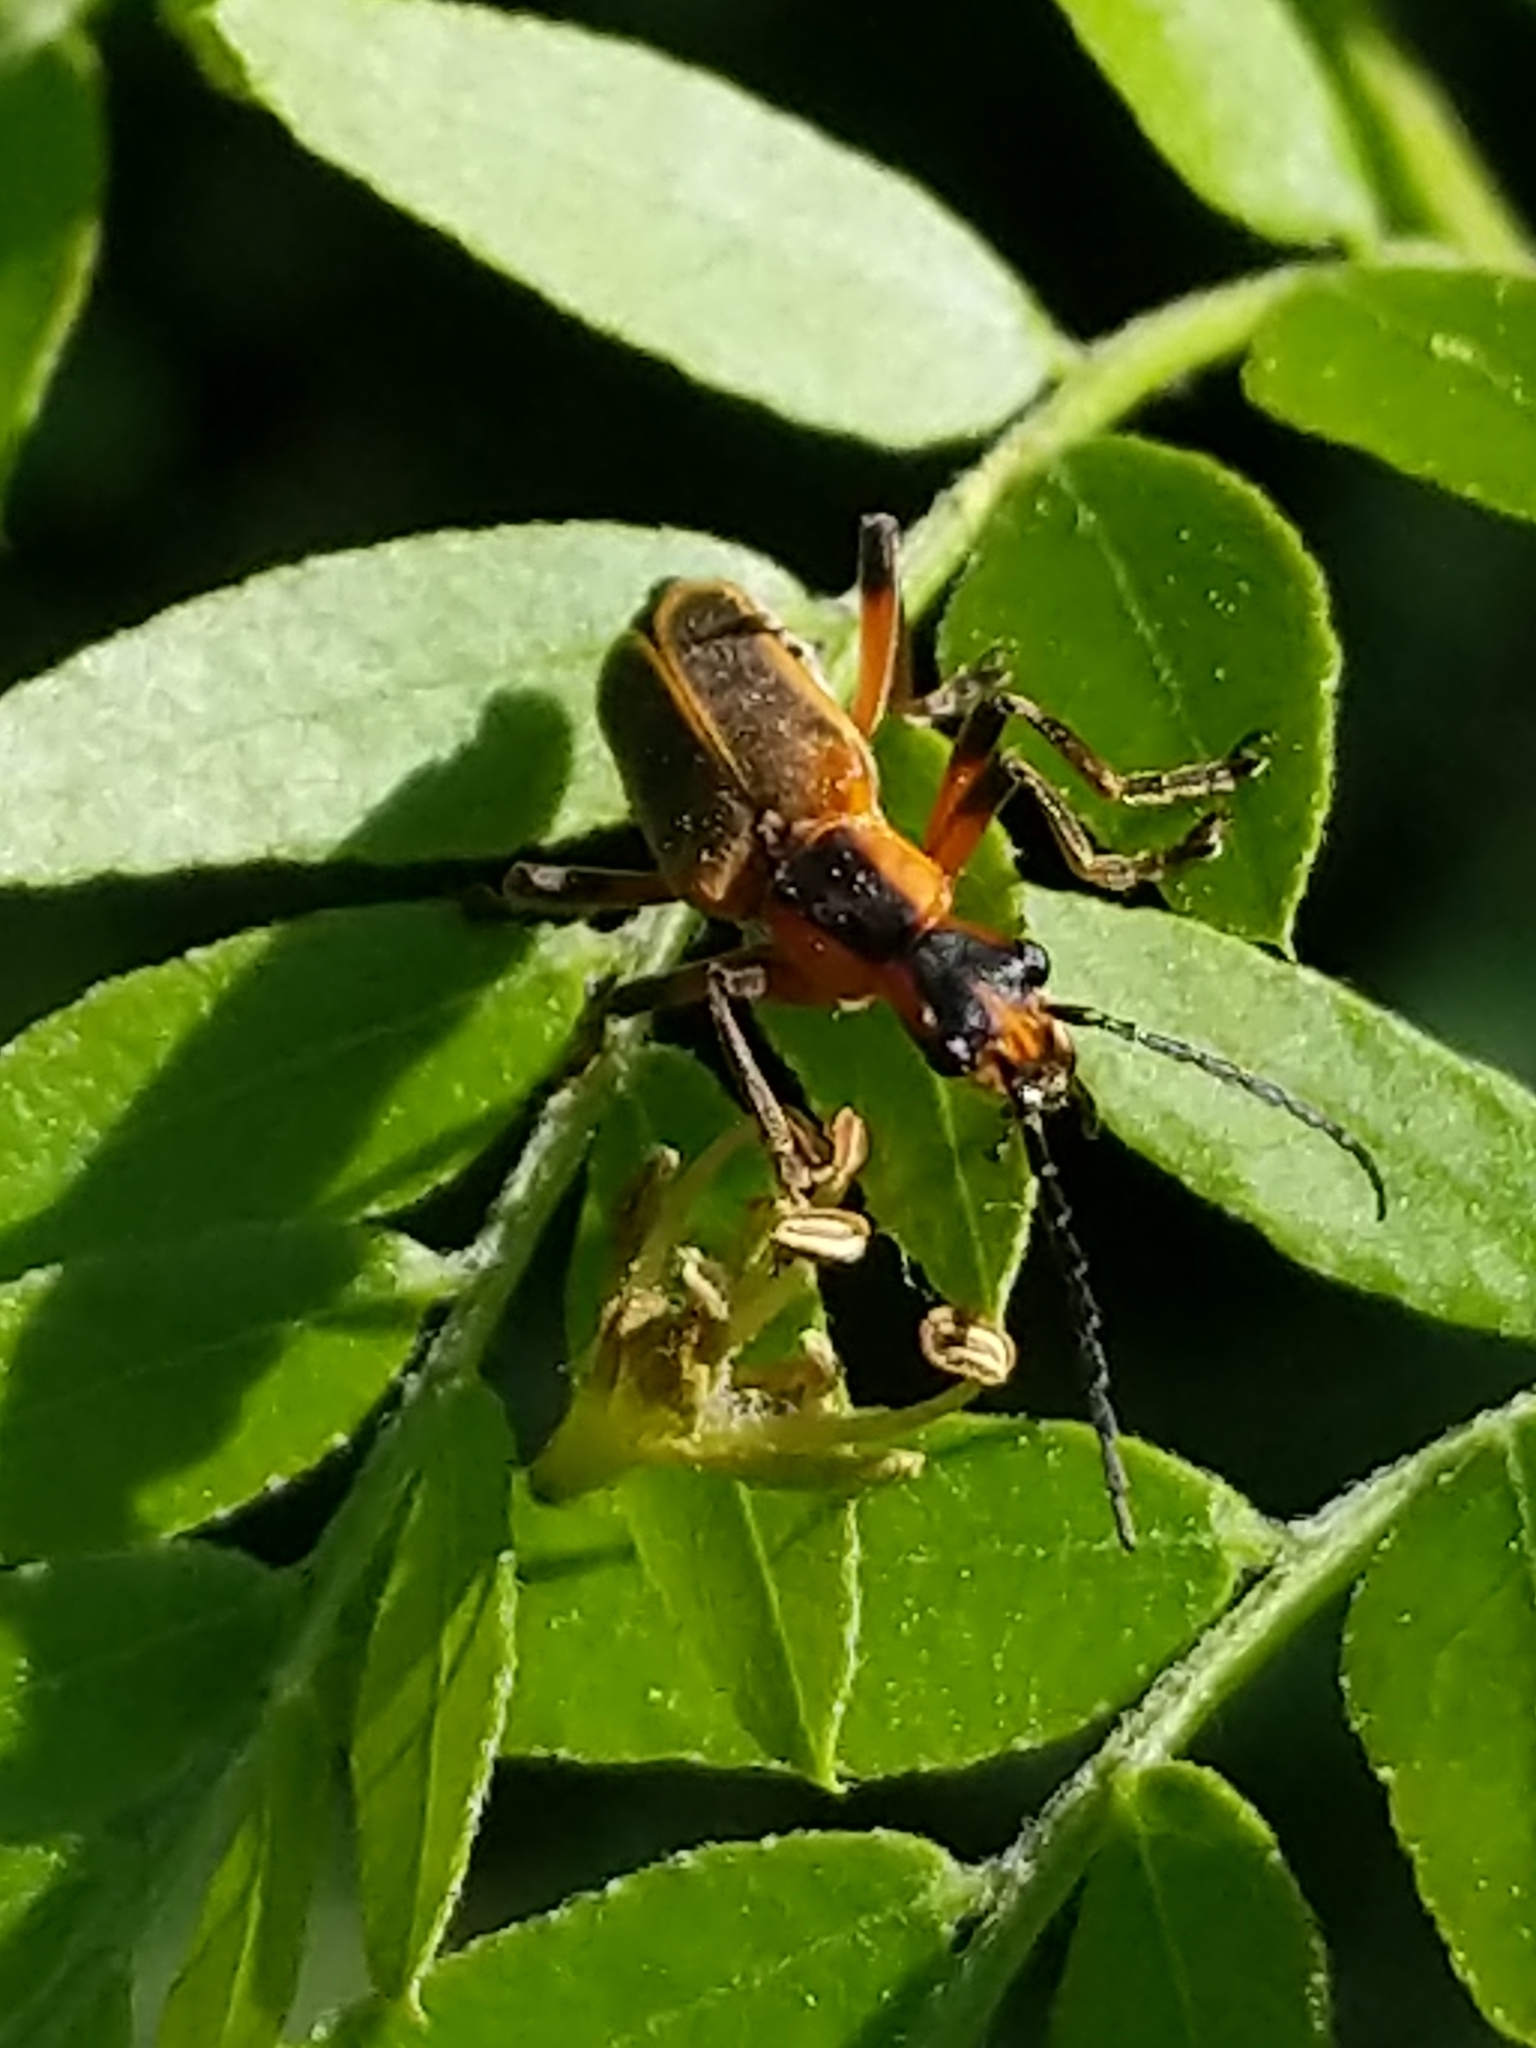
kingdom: Animalia
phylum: Arthropoda
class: Insecta
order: Coleoptera
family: Cantharidae
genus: Chauliognathus
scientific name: Chauliognathus marginatus
